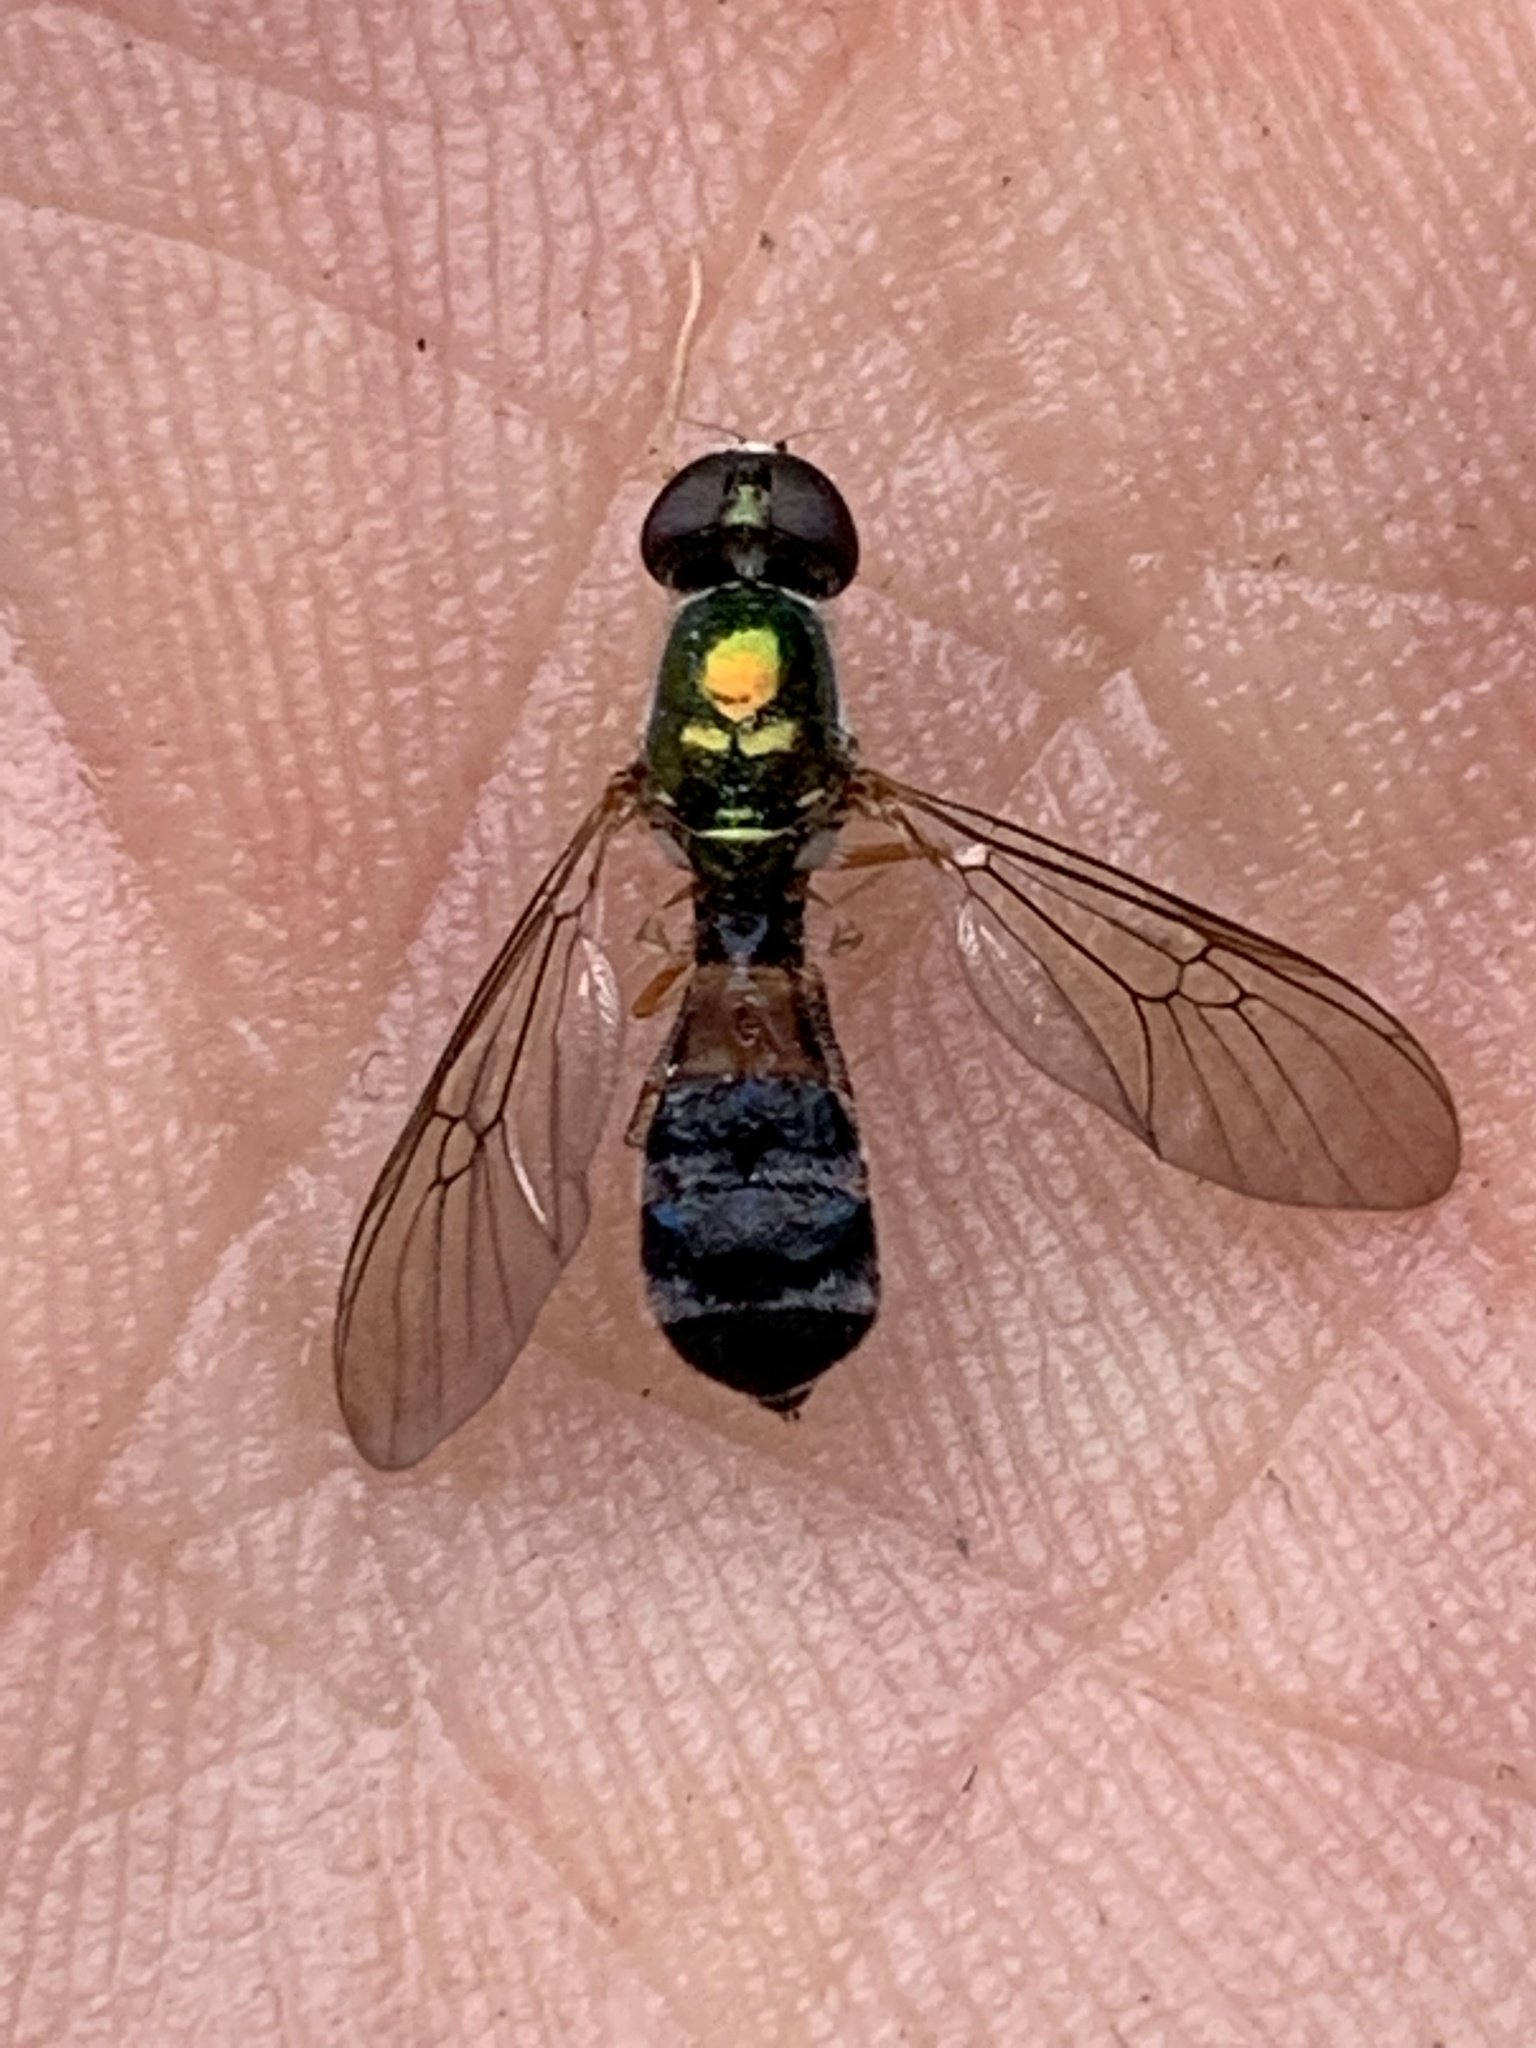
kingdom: Animalia
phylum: Arthropoda
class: Insecta
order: Diptera
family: Stratiomyidae
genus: Sargus
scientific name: Sargus fasciatus
